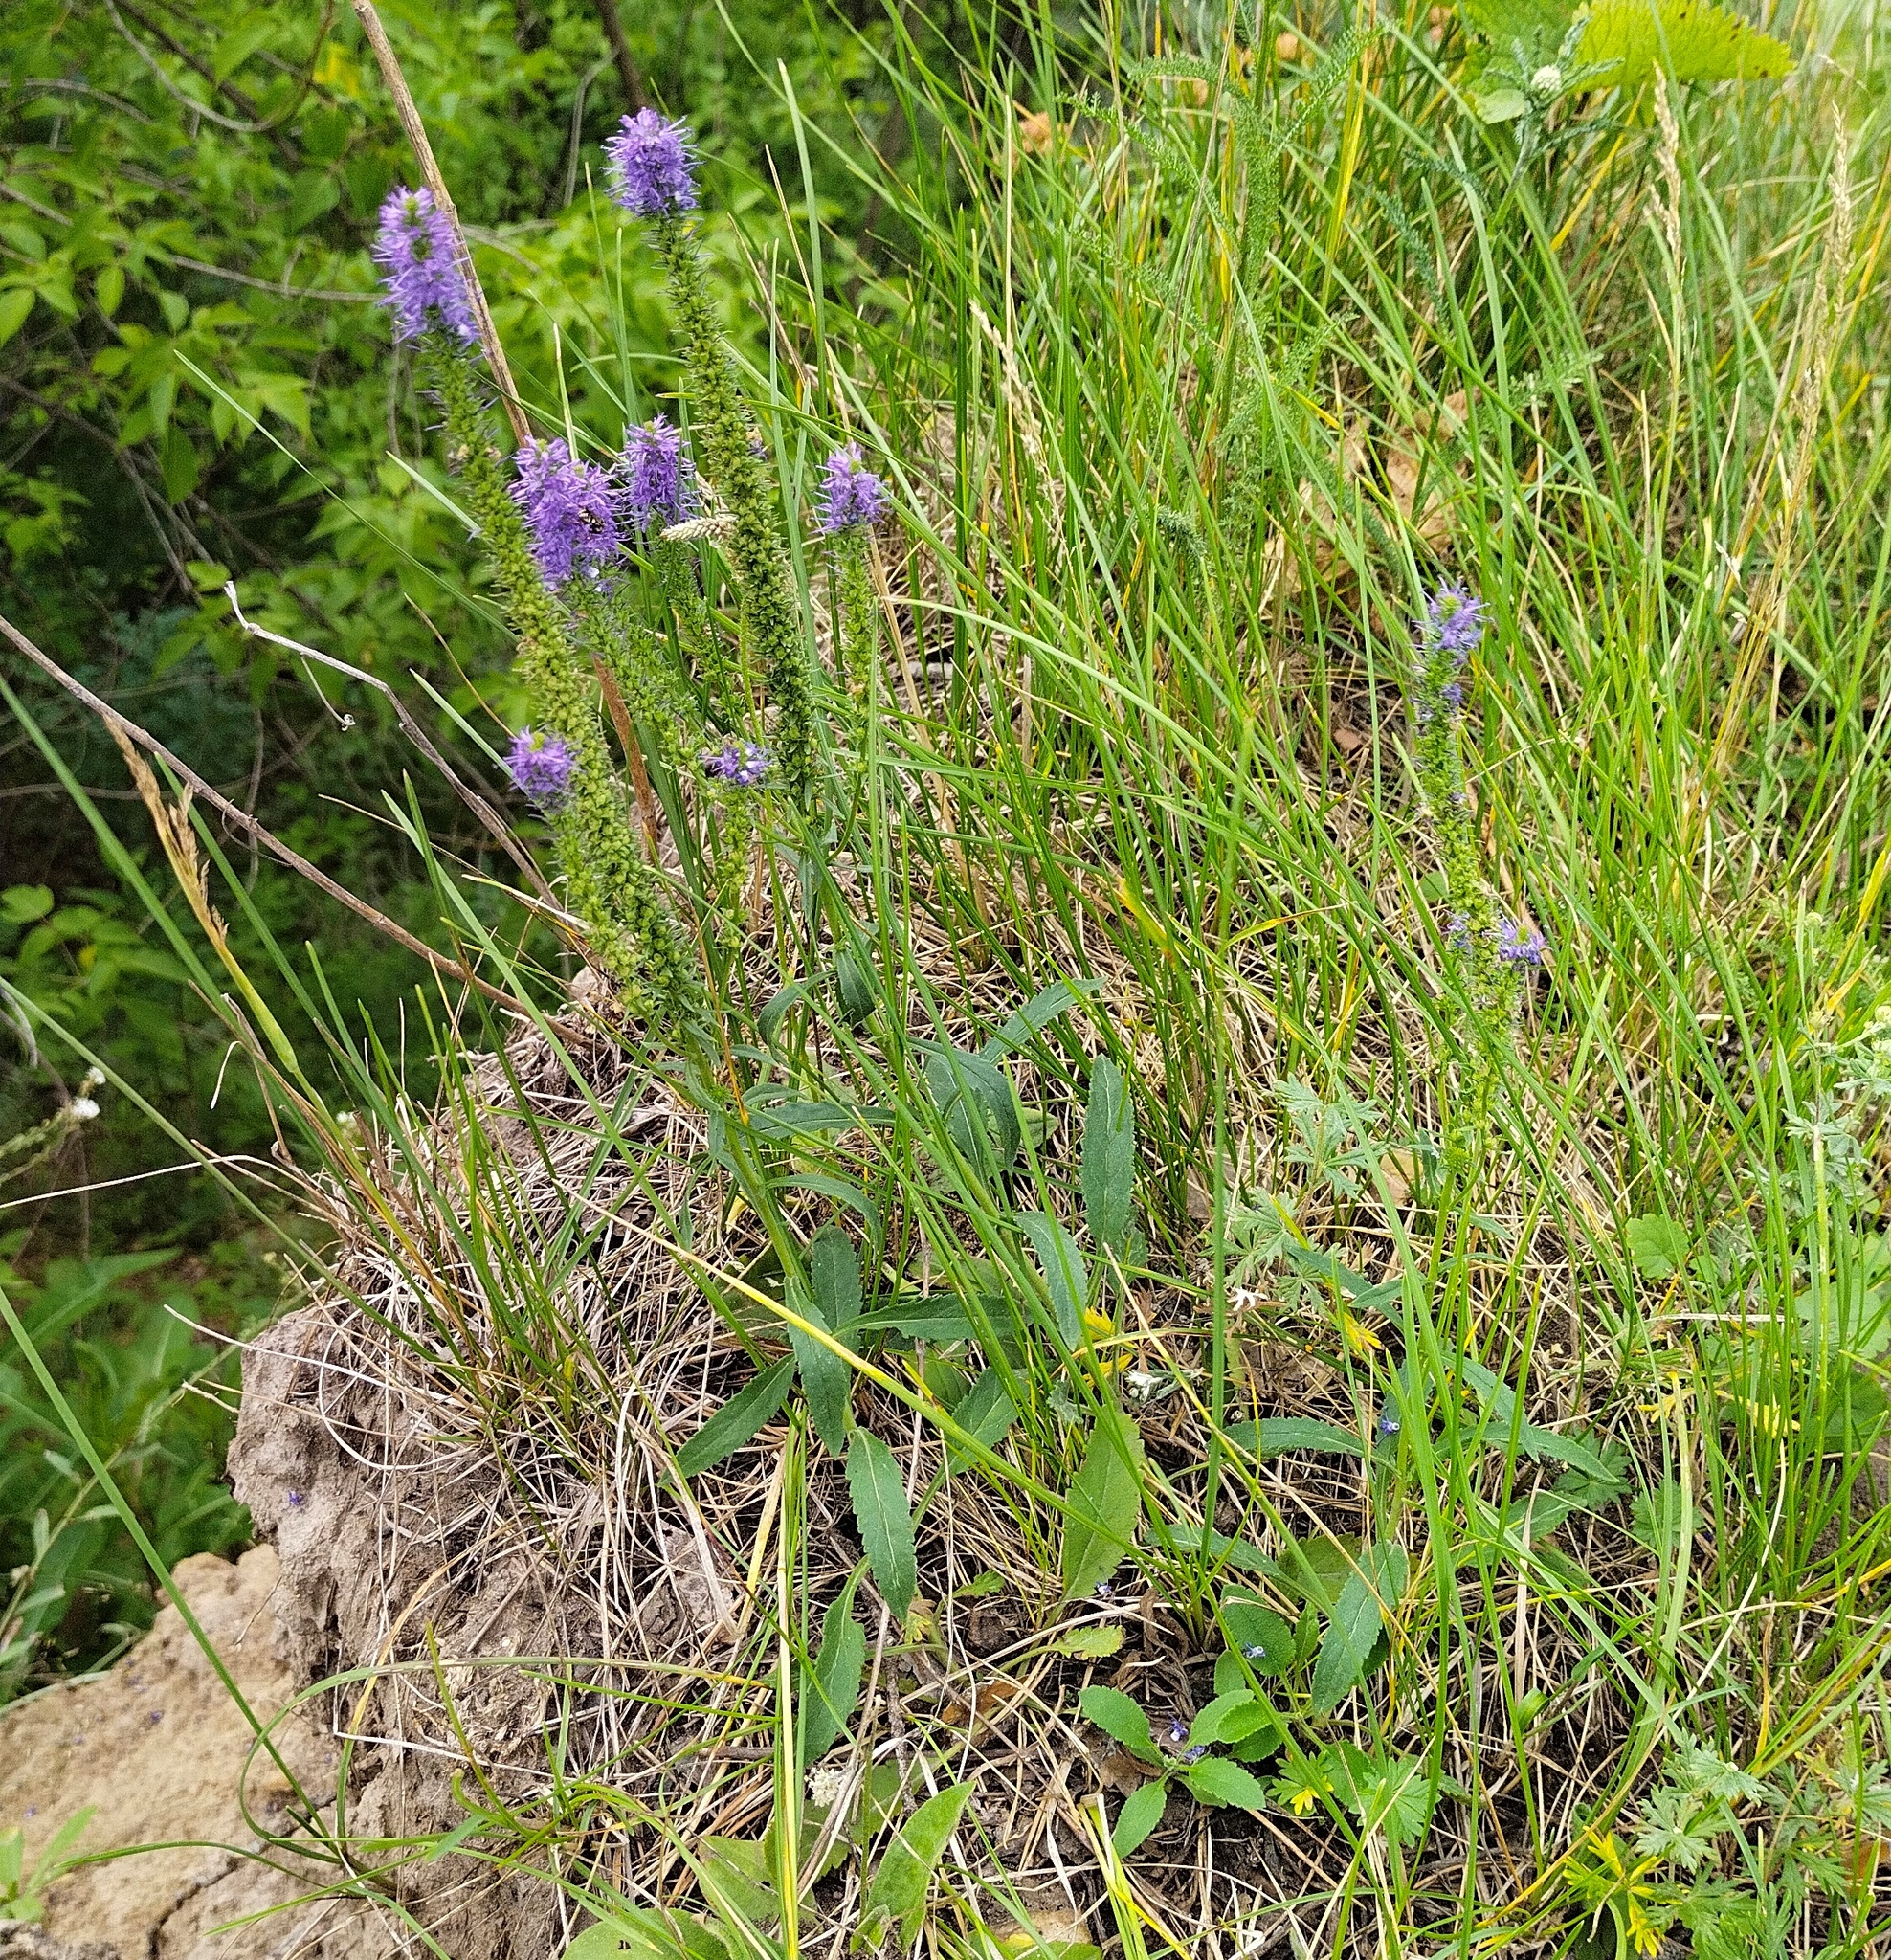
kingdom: Plantae
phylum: Tracheophyta
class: Magnoliopsida
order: Lamiales
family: Plantaginaceae
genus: Veronica
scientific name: Veronica spicata
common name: Spiked speedwell
